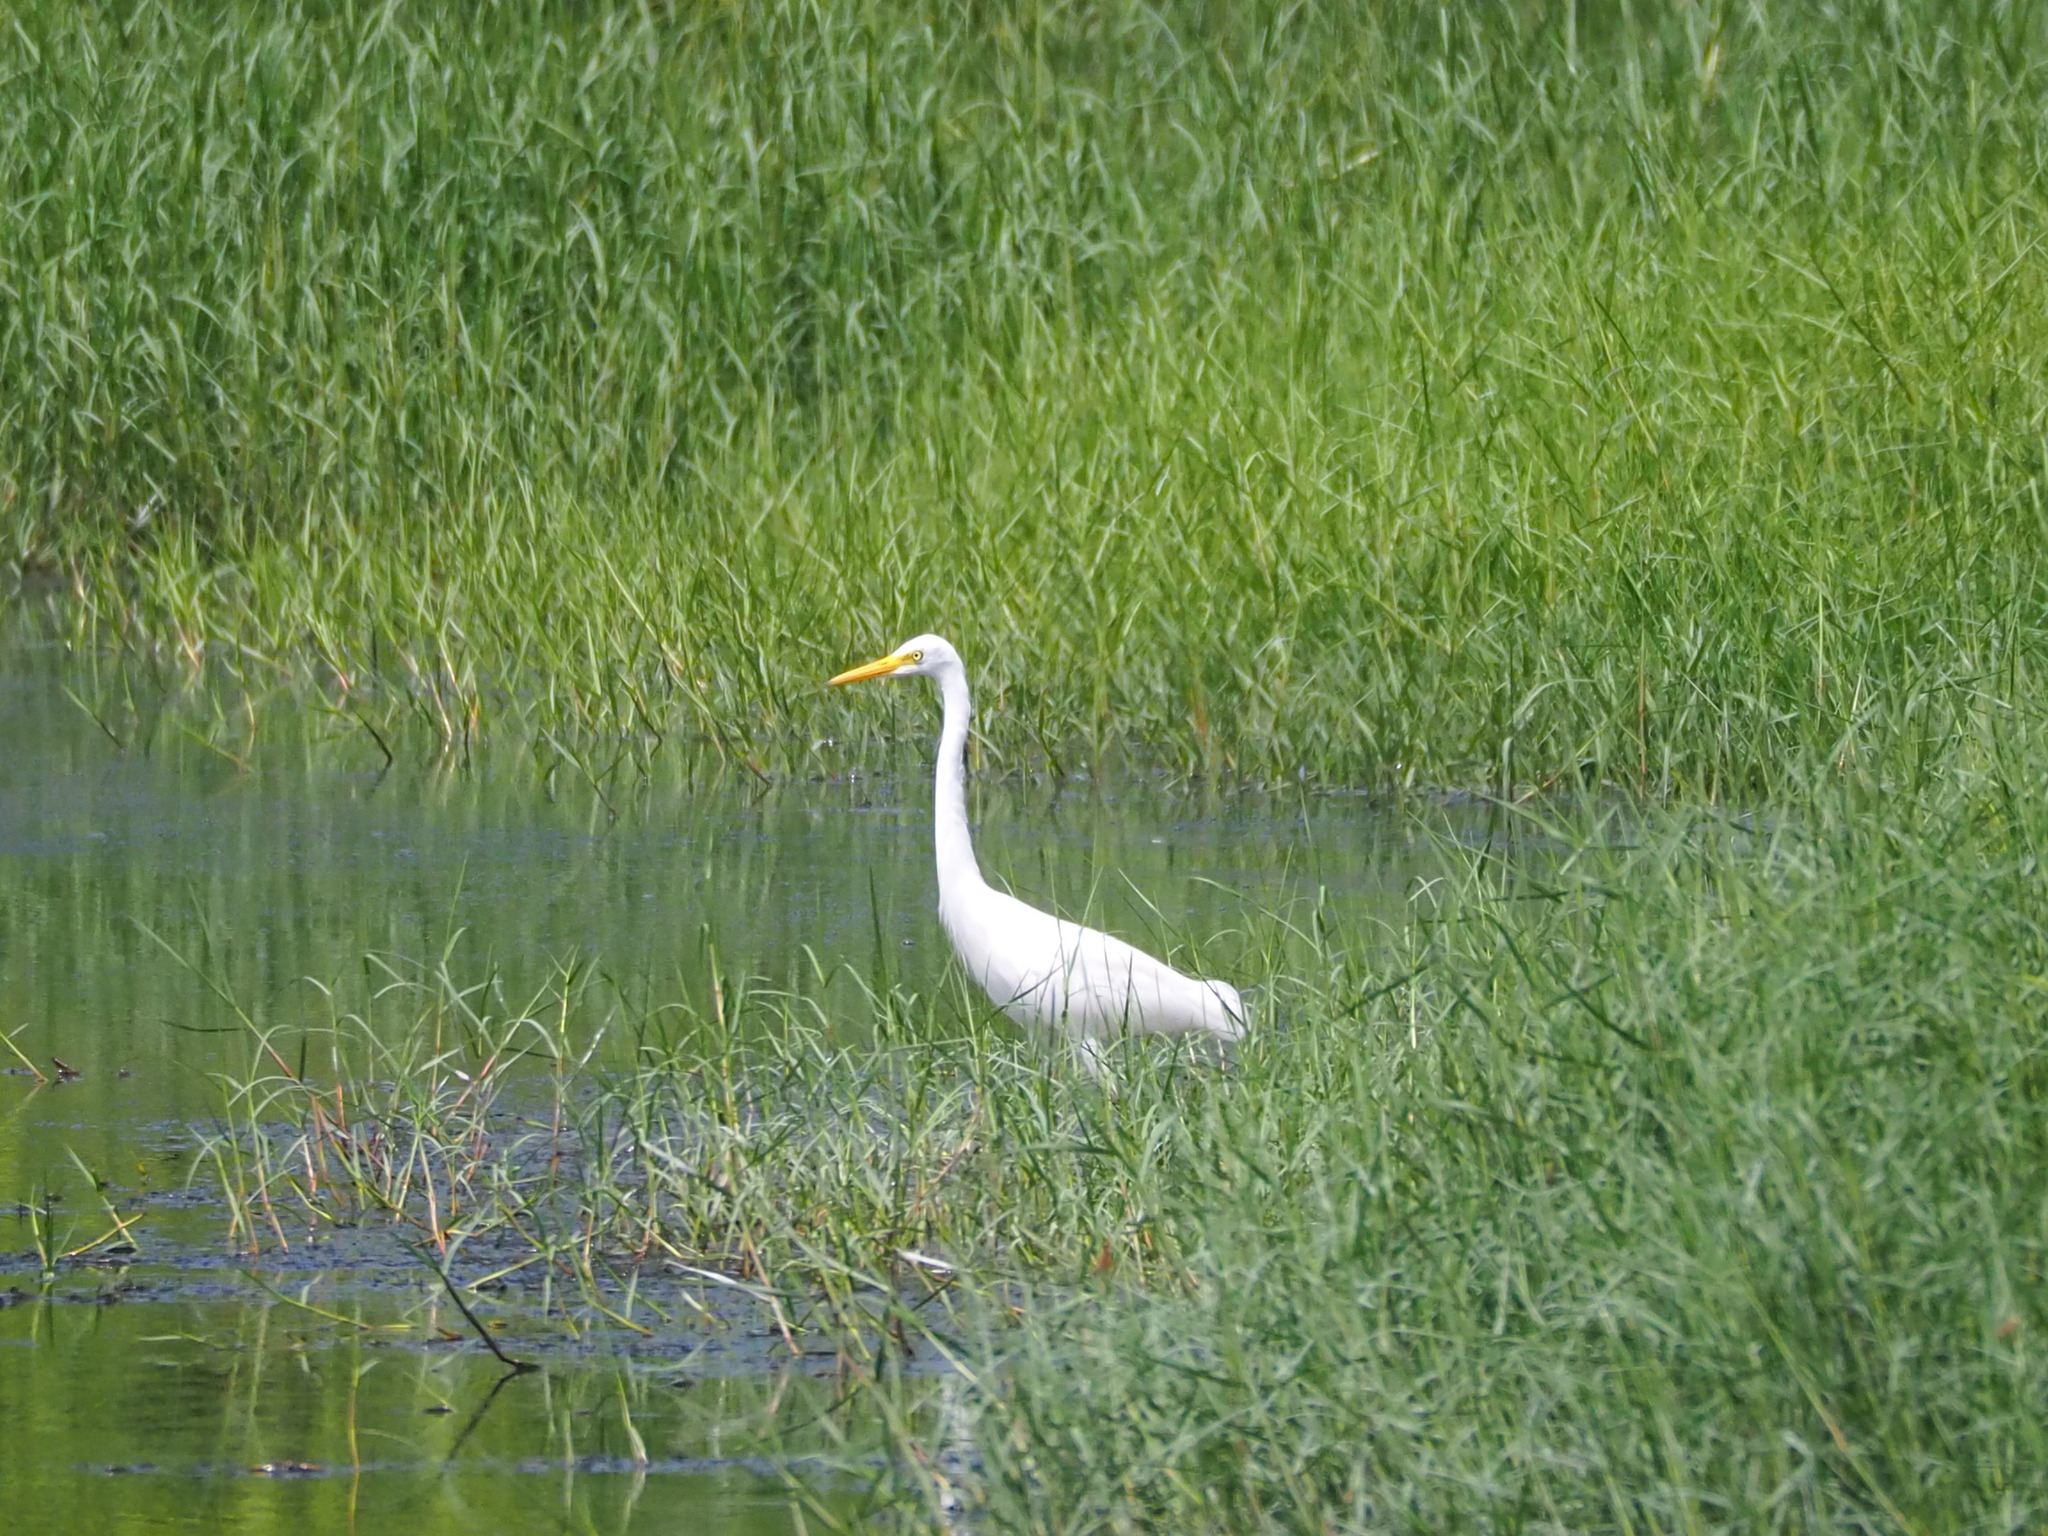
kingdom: Animalia
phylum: Chordata
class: Aves
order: Pelecaniformes
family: Ardeidae
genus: Egretta
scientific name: Egretta intermedia
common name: Intermediate egret
